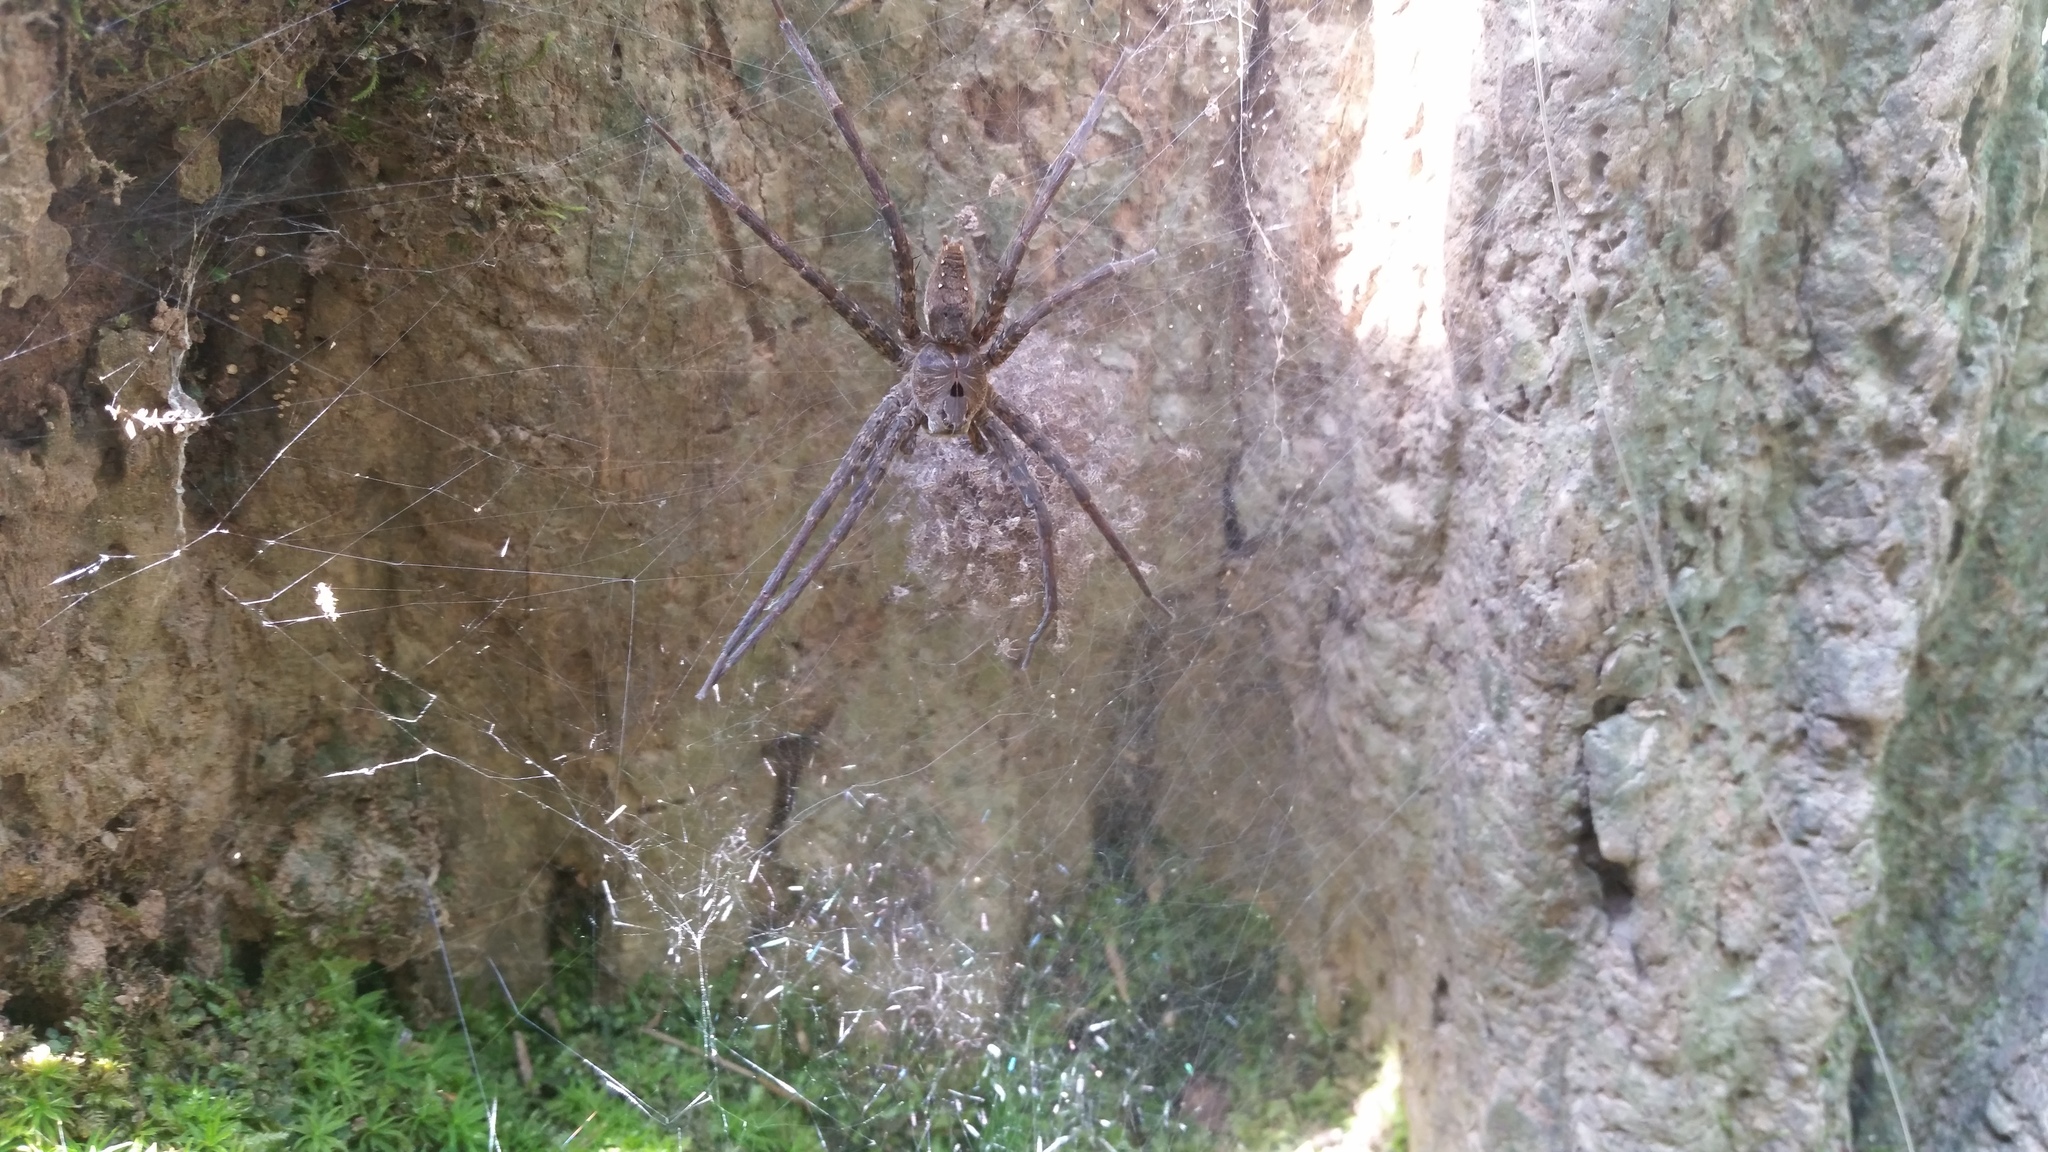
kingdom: Animalia
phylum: Arthropoda
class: Arachnida
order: Araneae
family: Pisauridae
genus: Dolomedes
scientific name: Dolomedes vittatus
